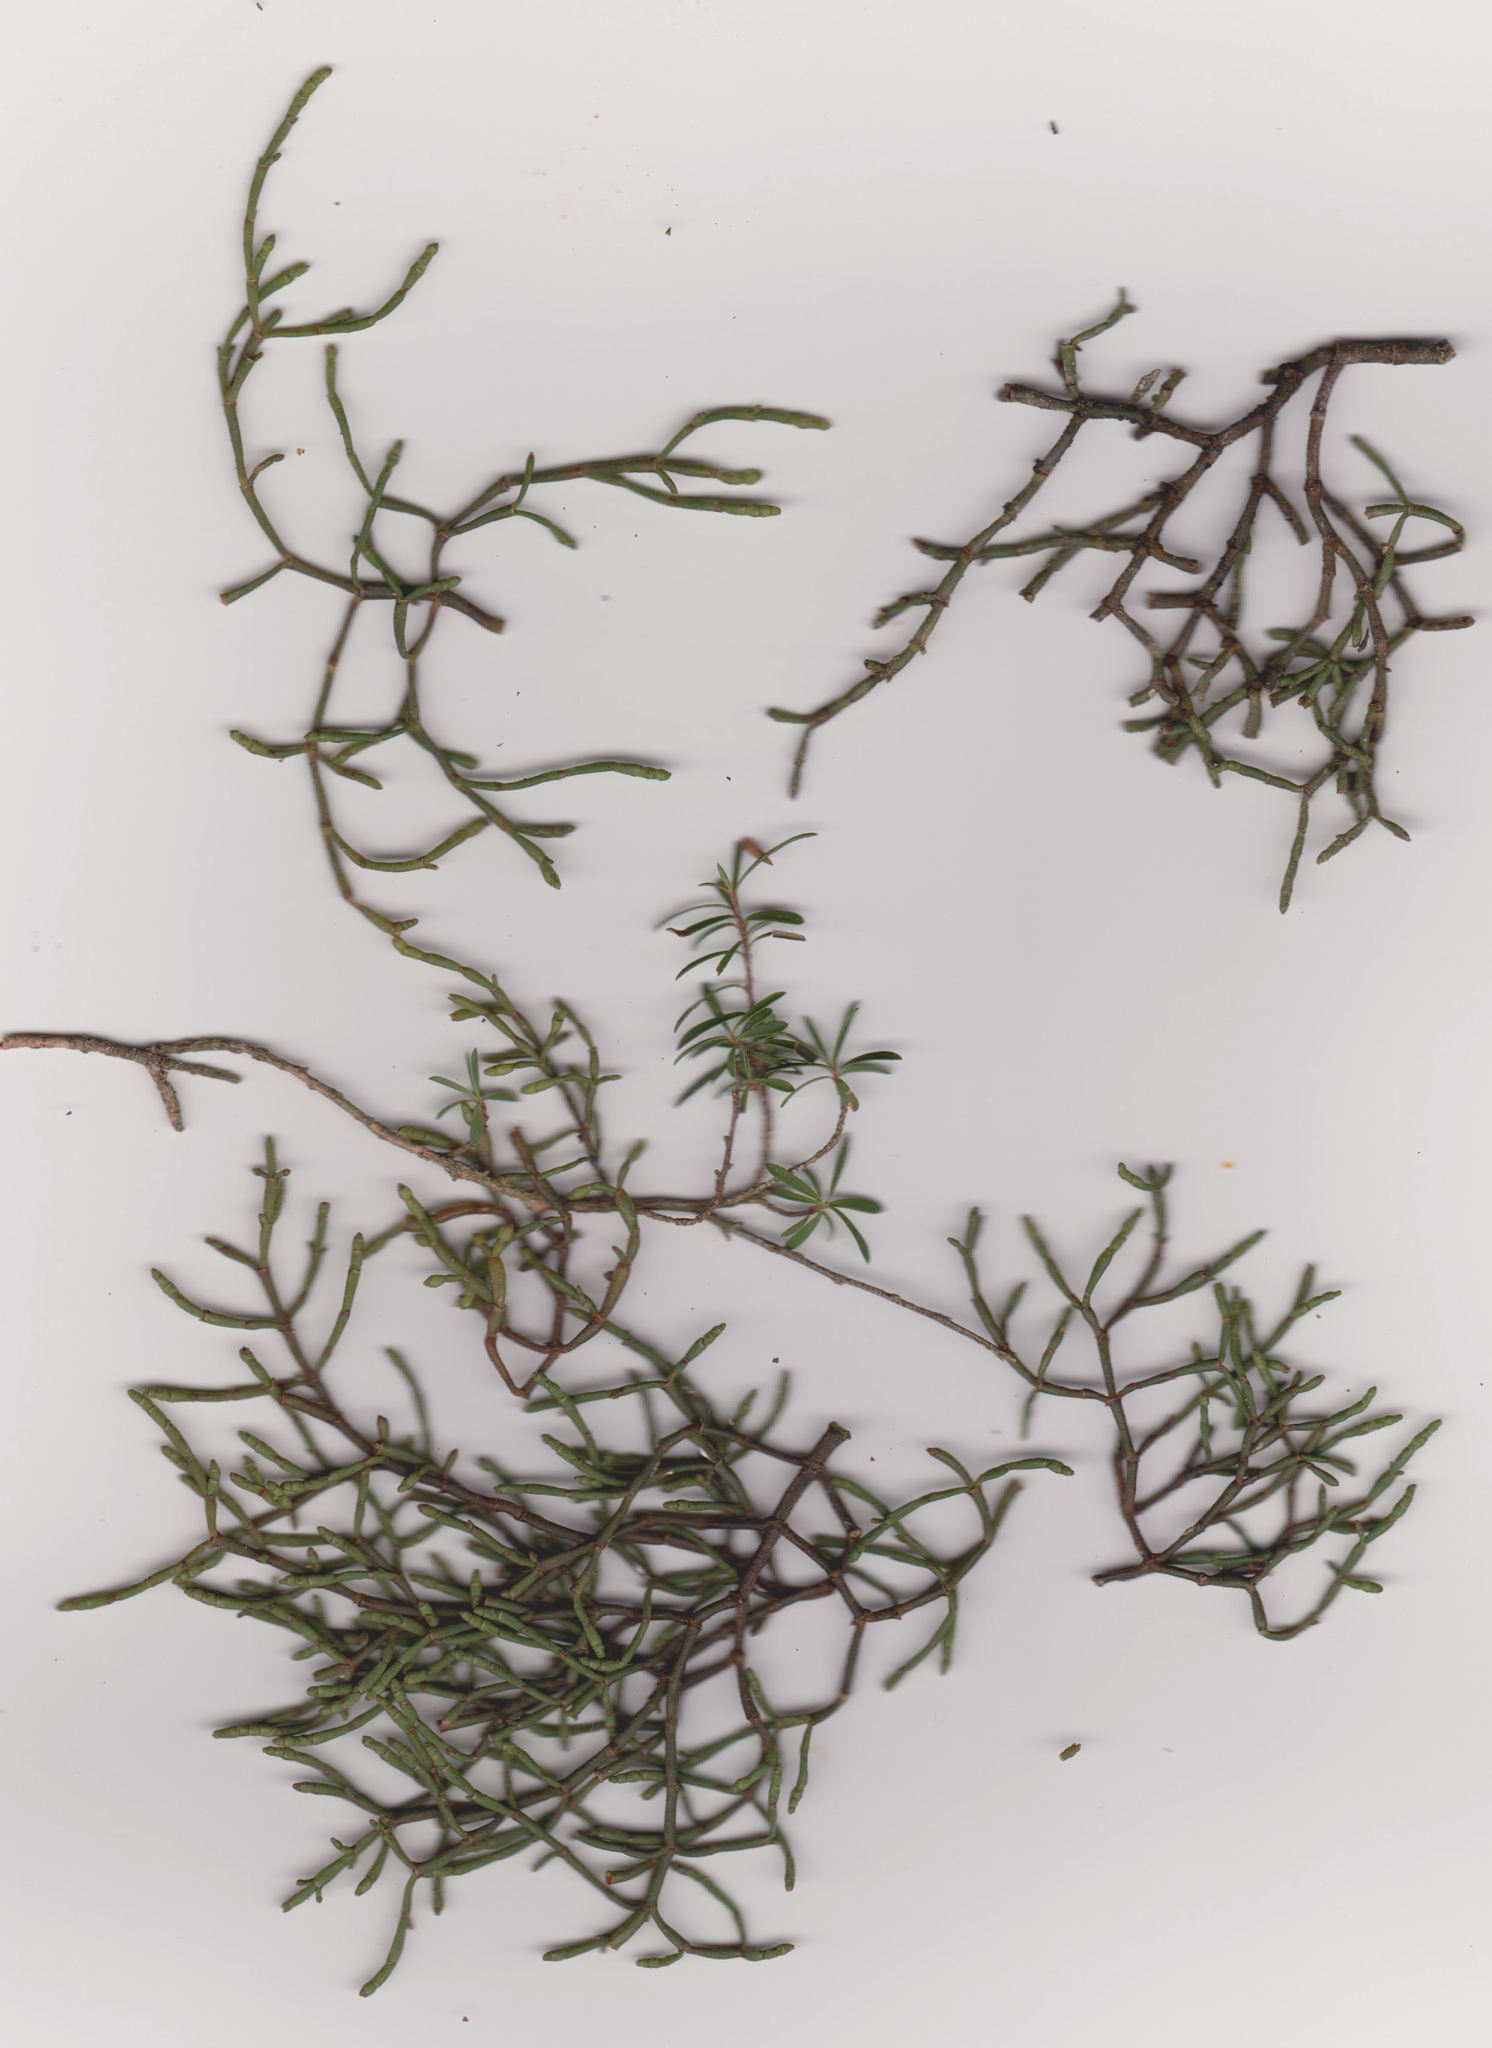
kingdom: Plantae
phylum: Tracheophyta
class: Magnoliopsida
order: Santalales
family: Viscaceae
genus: Korthalsella
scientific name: Korthalsella salicornioides
